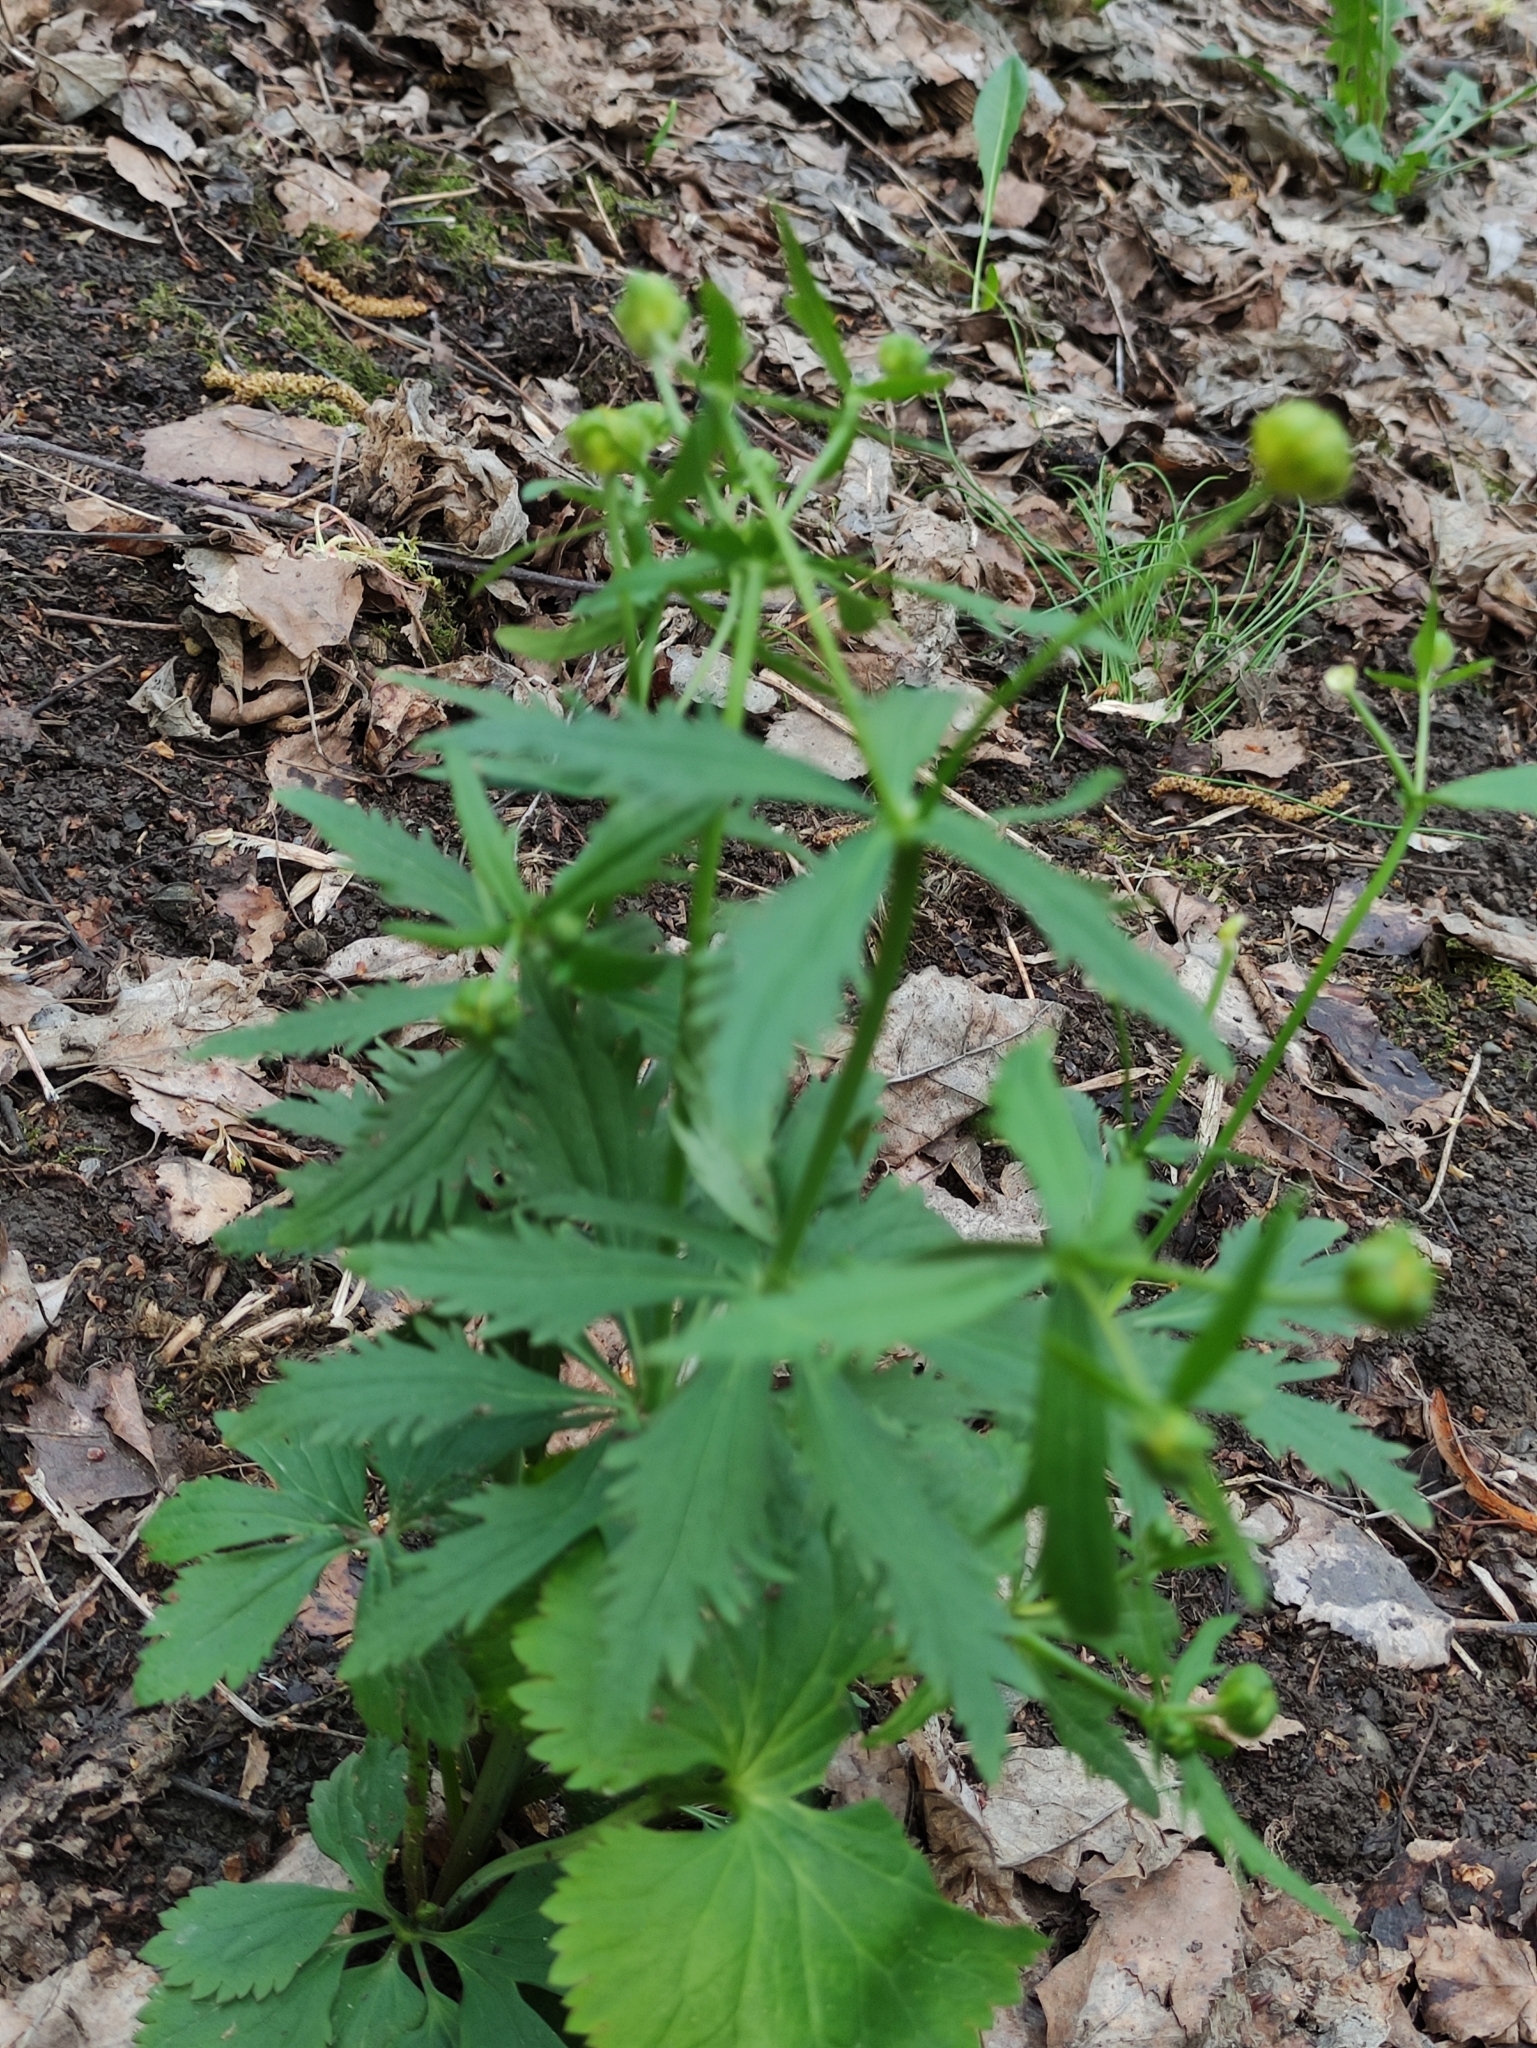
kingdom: Plantae
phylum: Tracheophyta
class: Magnoliopsida
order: Ranunculales
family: Ranunculaceae
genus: Ranunculus
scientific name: Ranunculus cassubicus
